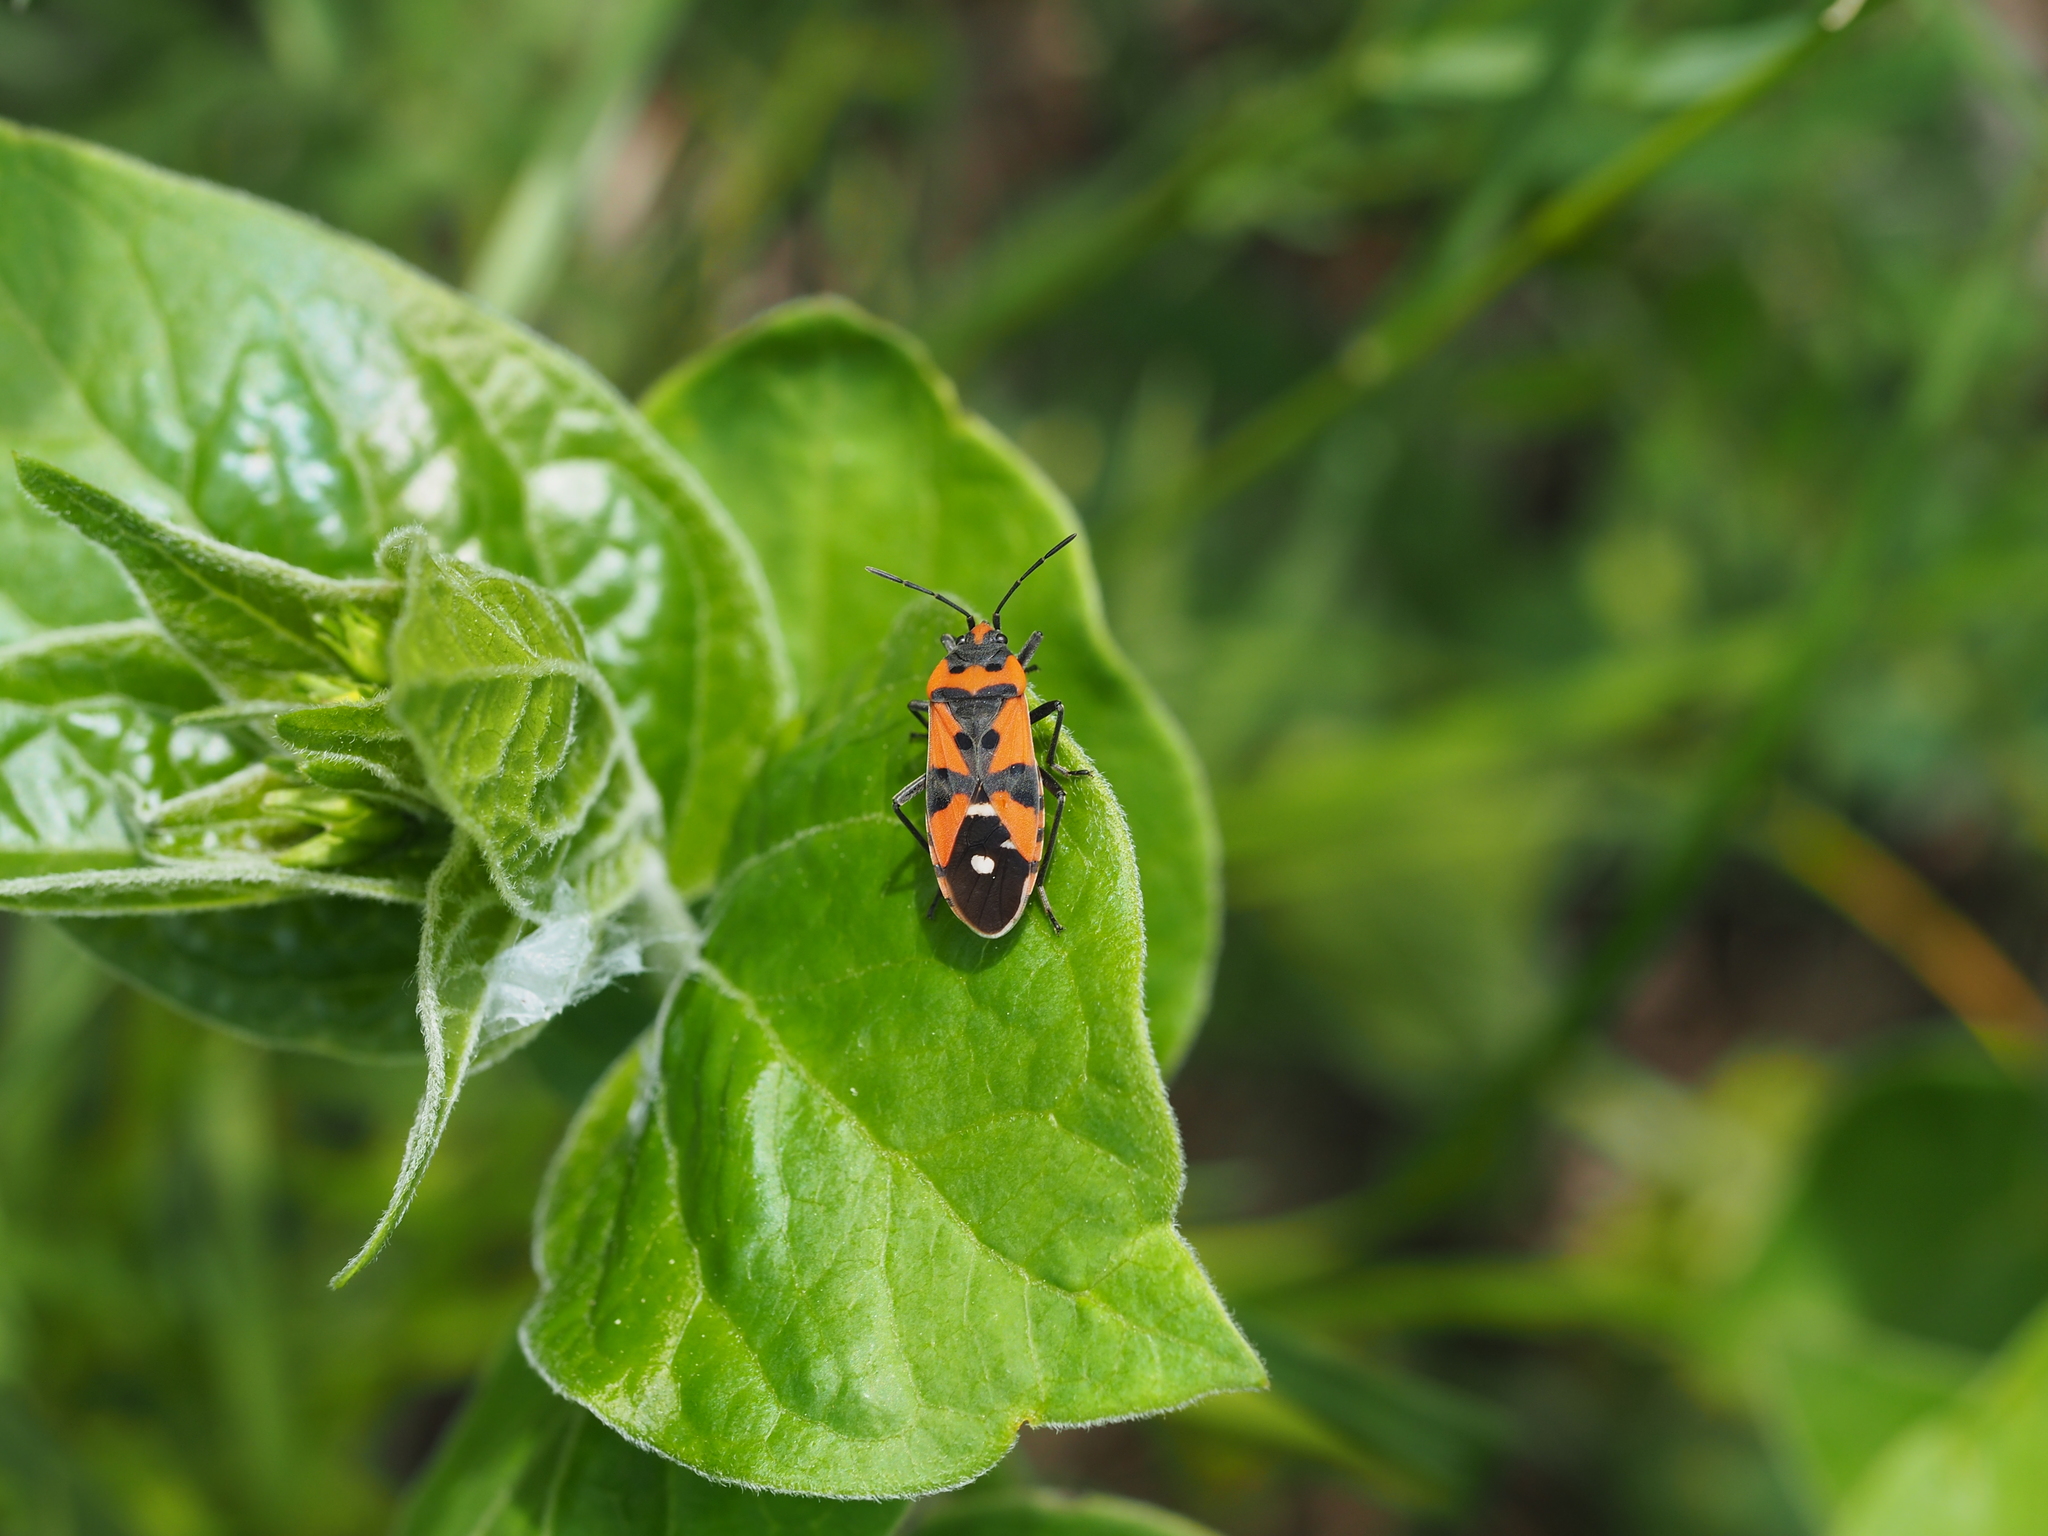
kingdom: Animalia
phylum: Arthropoda
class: Insecta
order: Hemiptera
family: Lygaeidae
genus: Lygaeus
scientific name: Lygaeus equestris
